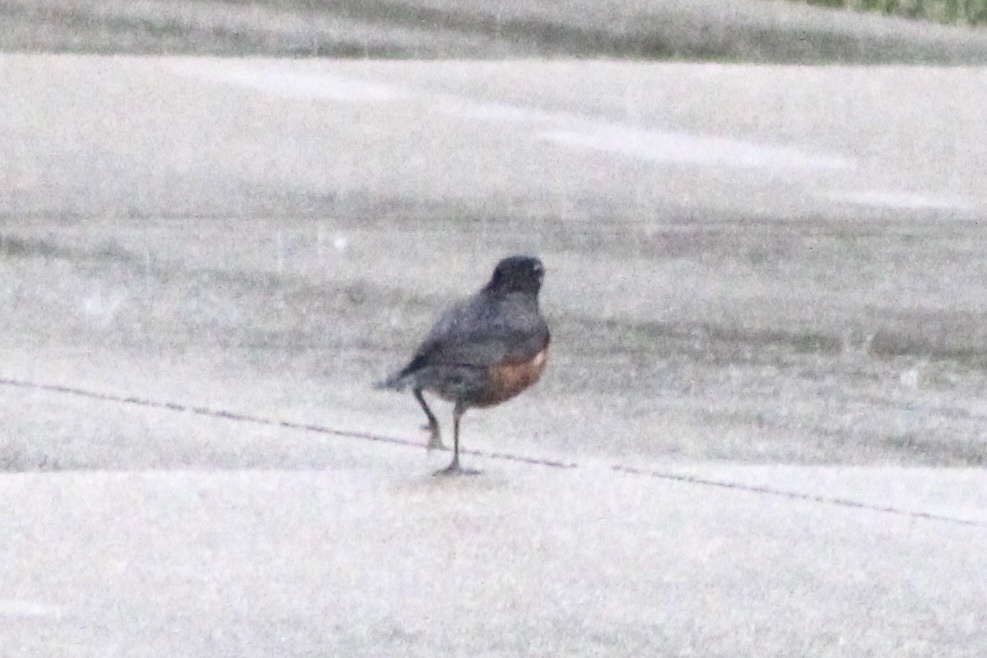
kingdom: Animalia
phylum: Chordata
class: Aves
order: Passeriformes
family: Turdidae
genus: Turdus
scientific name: Turdus migratorius
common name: American robin
